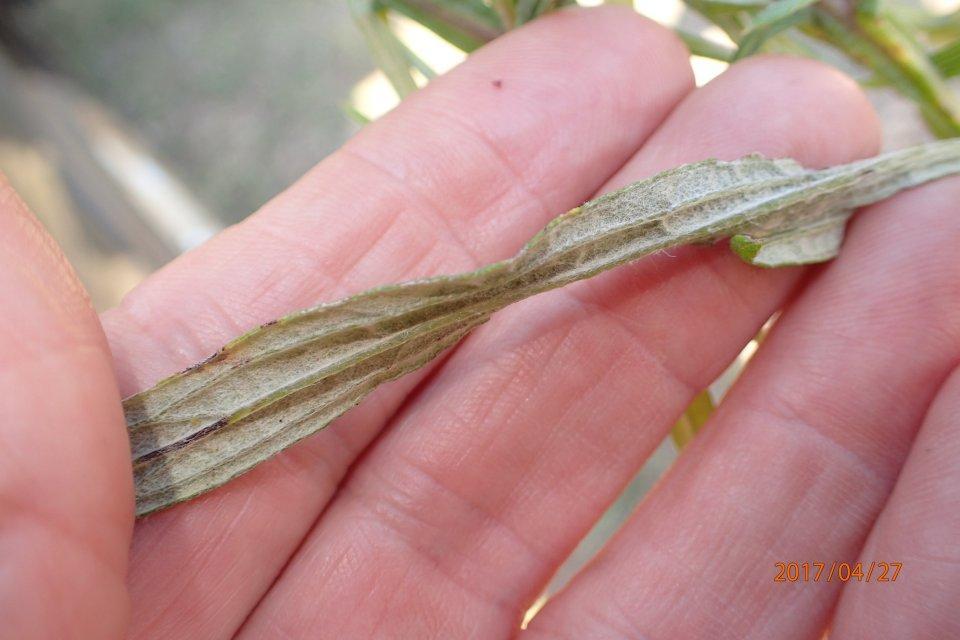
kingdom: Plantae
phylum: Tracheophyta
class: Magnoliopsida
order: Asterales
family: Asteraceae
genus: Helichrysum
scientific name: Helichrysum natalitium
